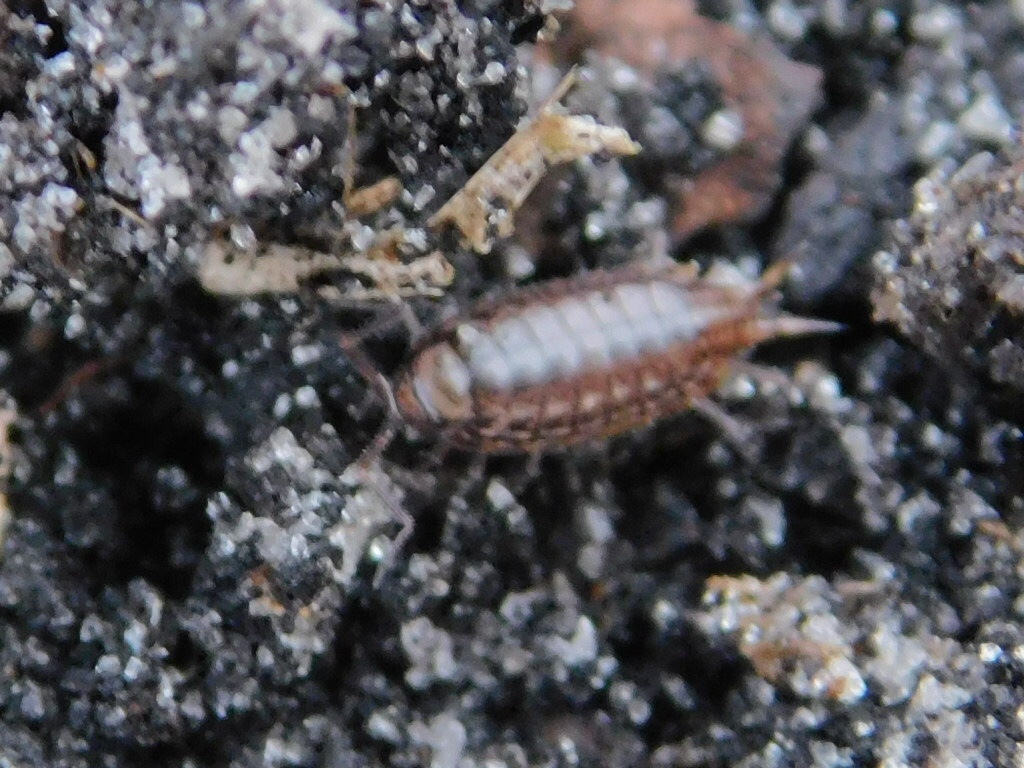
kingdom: Animalia
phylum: Arthropoda
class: Malacostraca
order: Isopoda
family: Philosciidae
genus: Atlantoscia
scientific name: Atlantoscia floridana
